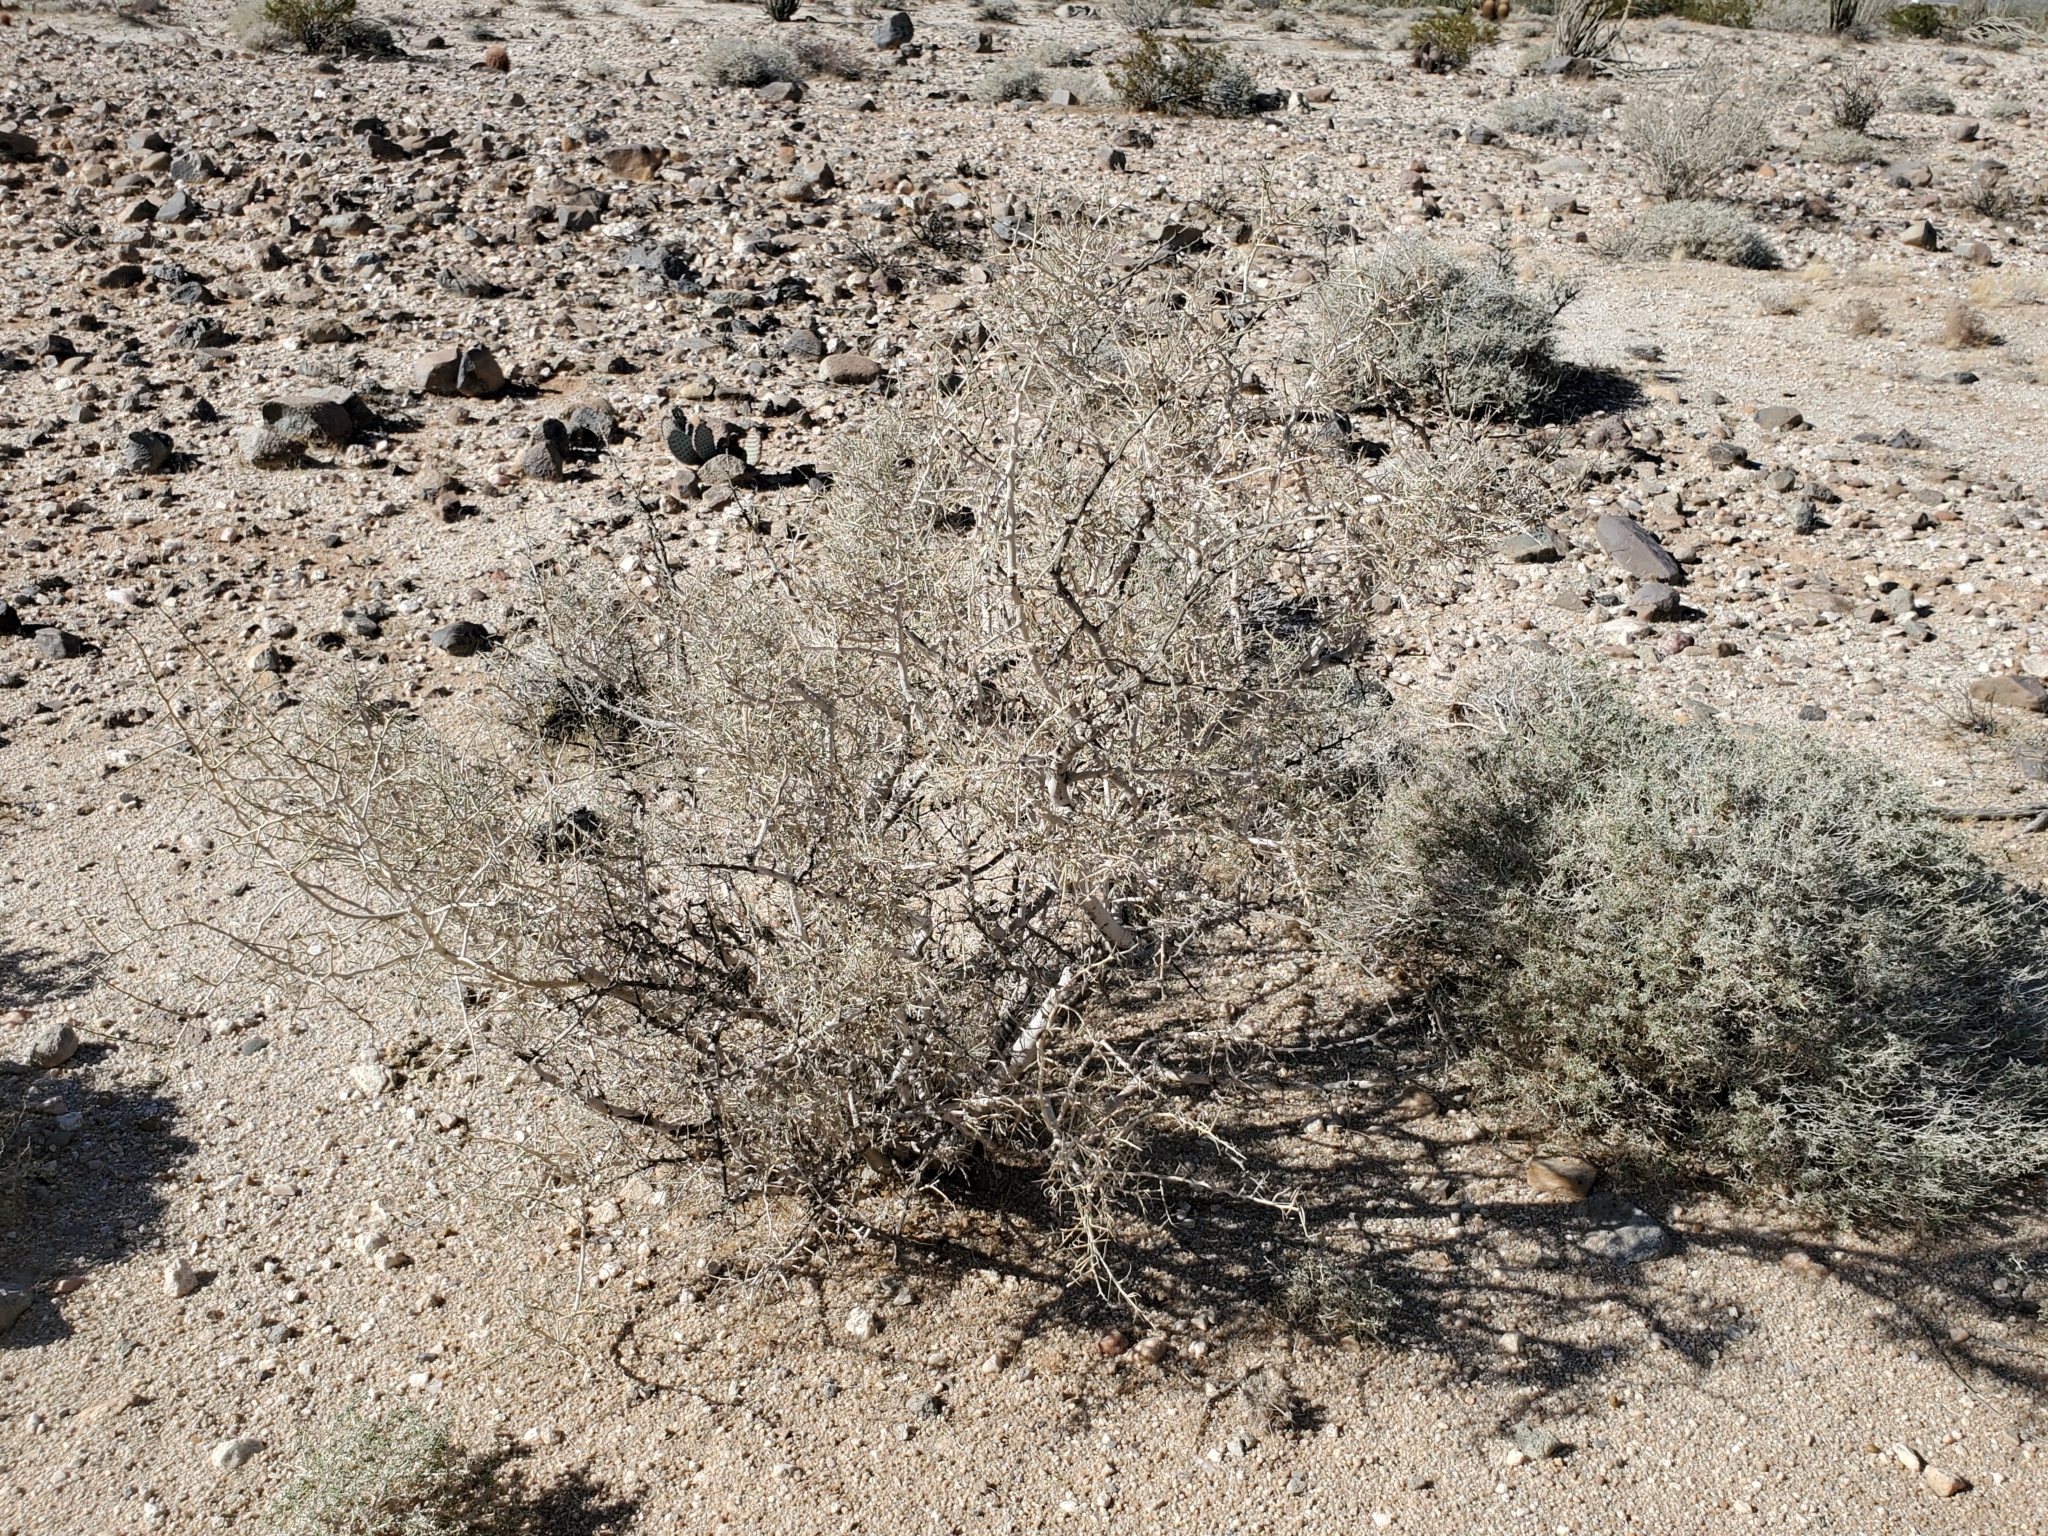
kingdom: Plantae
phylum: Tracheophyta
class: Magnoliopsida
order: Fabales
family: Fabaceae
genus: Psorothamnus
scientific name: Psorothamnus schottii
